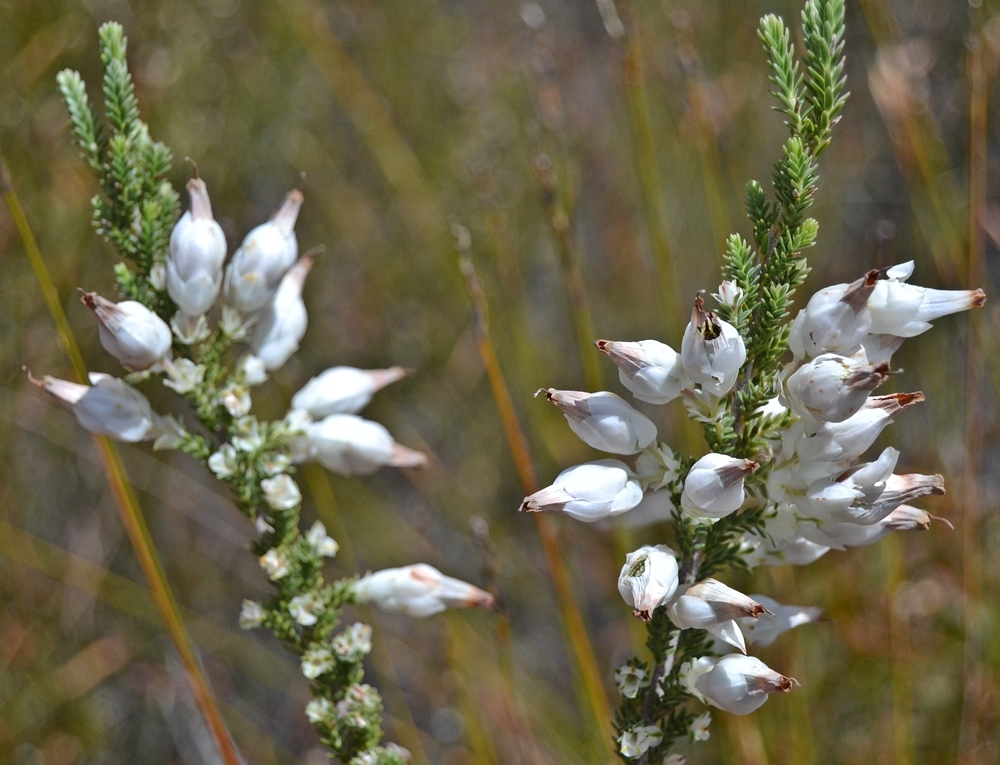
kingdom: Plantae
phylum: Tracheophyta
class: Magnoliopsida
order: Ericales
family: Ericaceae
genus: Erica
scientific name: Erica monsoniana
